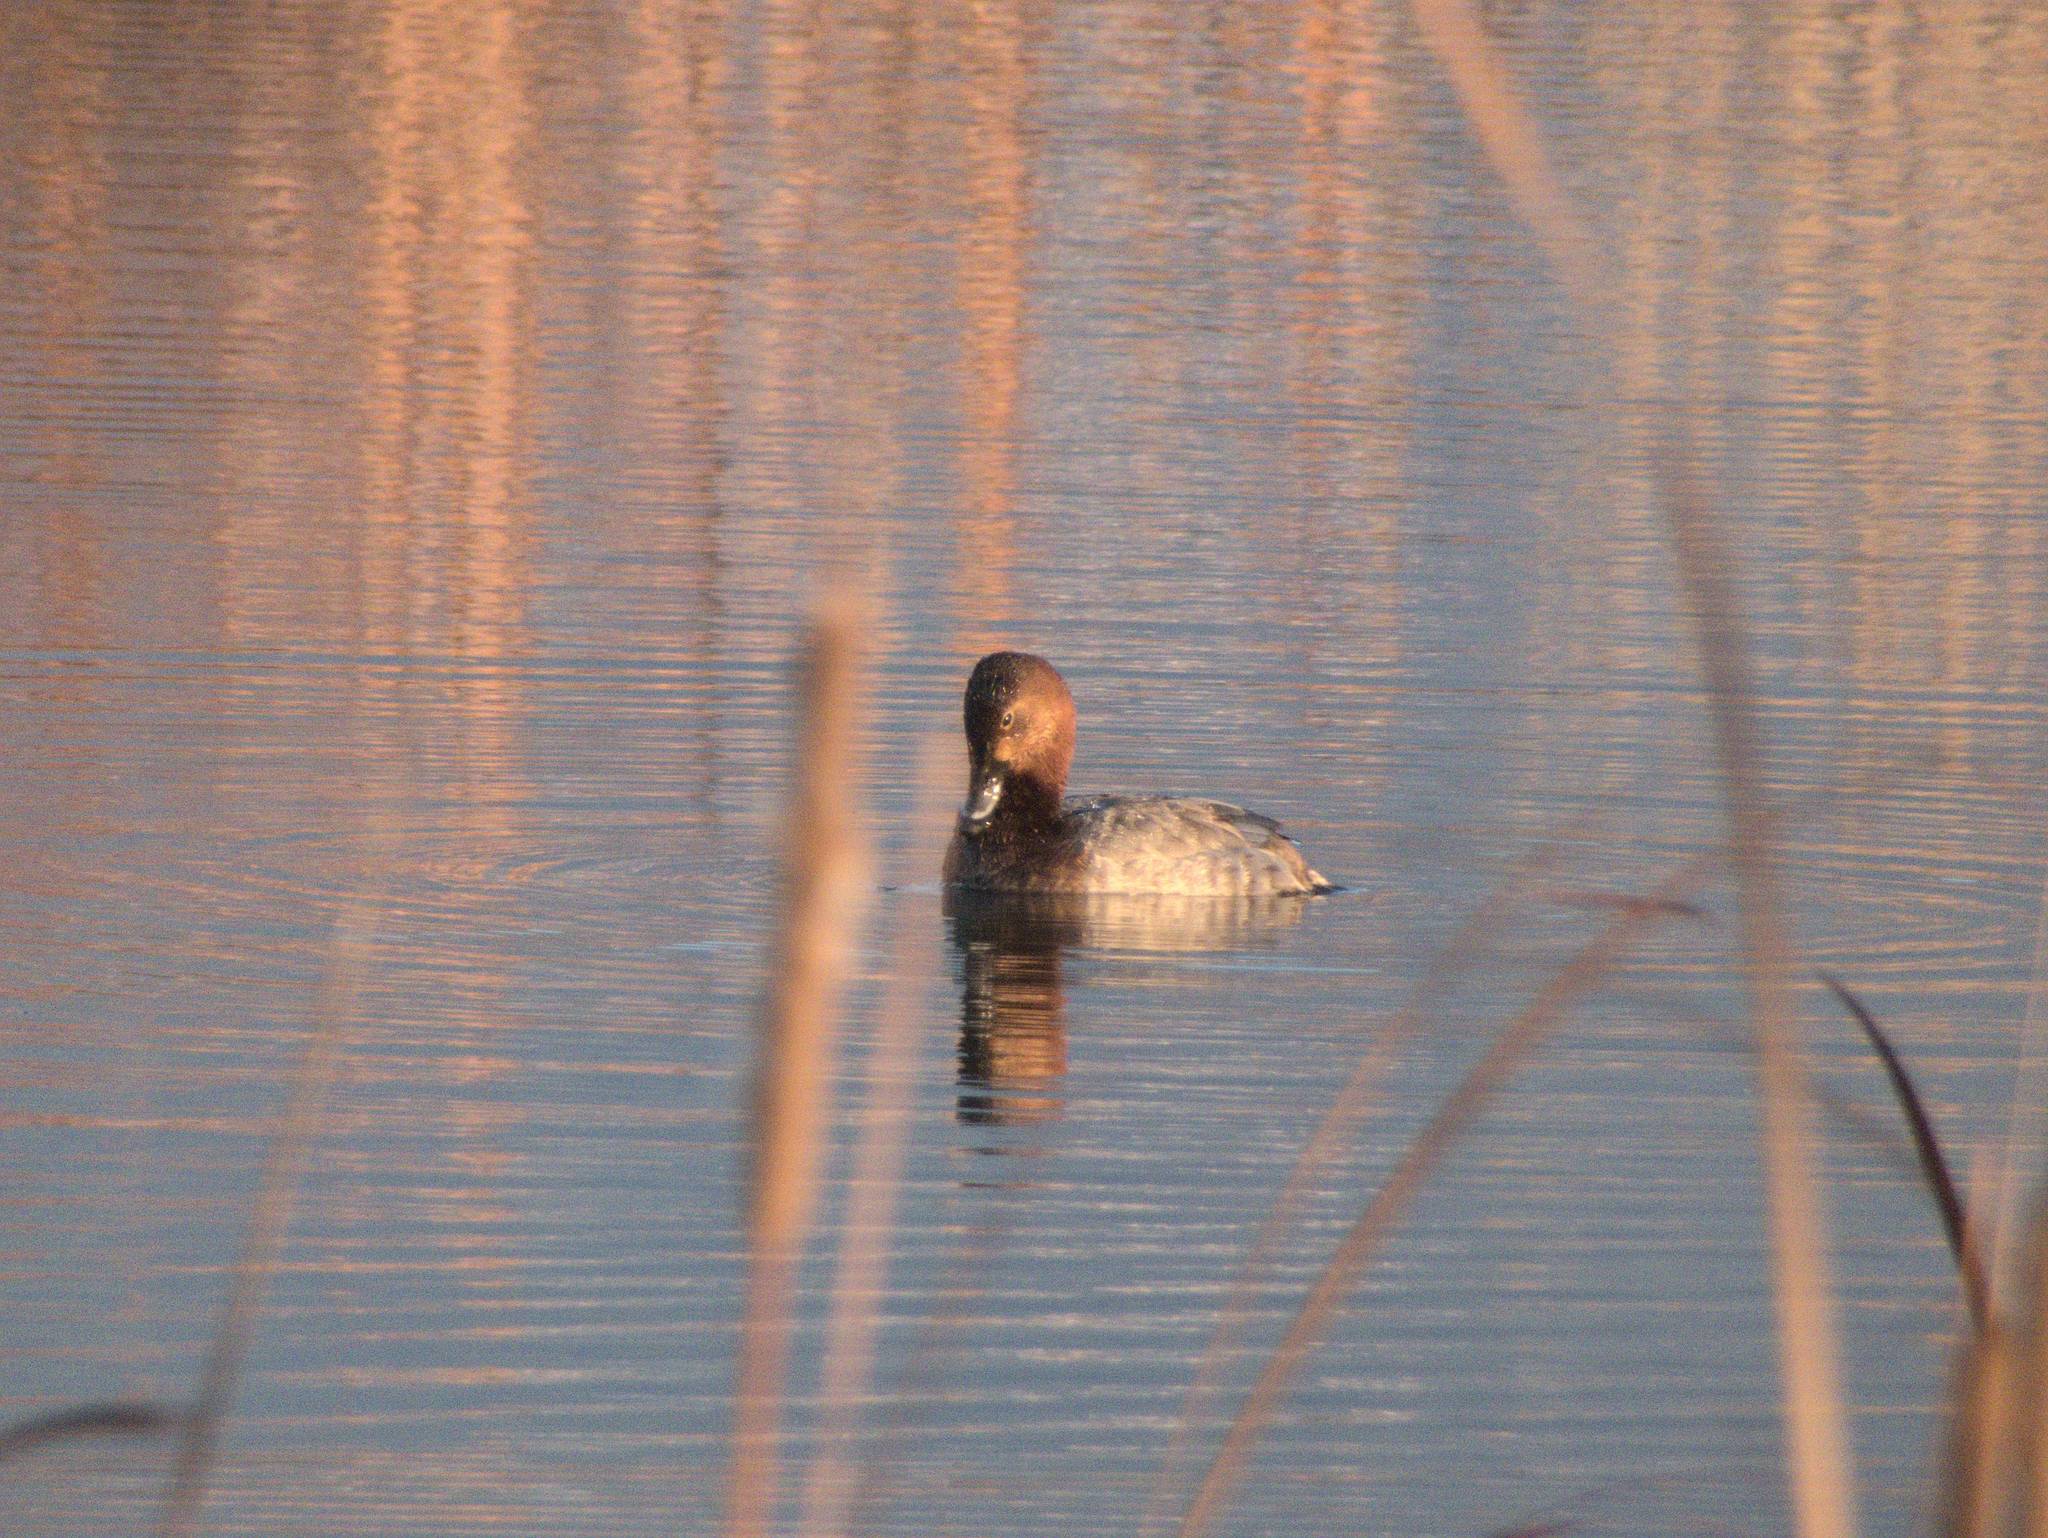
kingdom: Animalia
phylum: Chordata
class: Aves
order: Anseriformes
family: Anatidae
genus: Aythya
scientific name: Aythya ferina
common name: Common pochard
